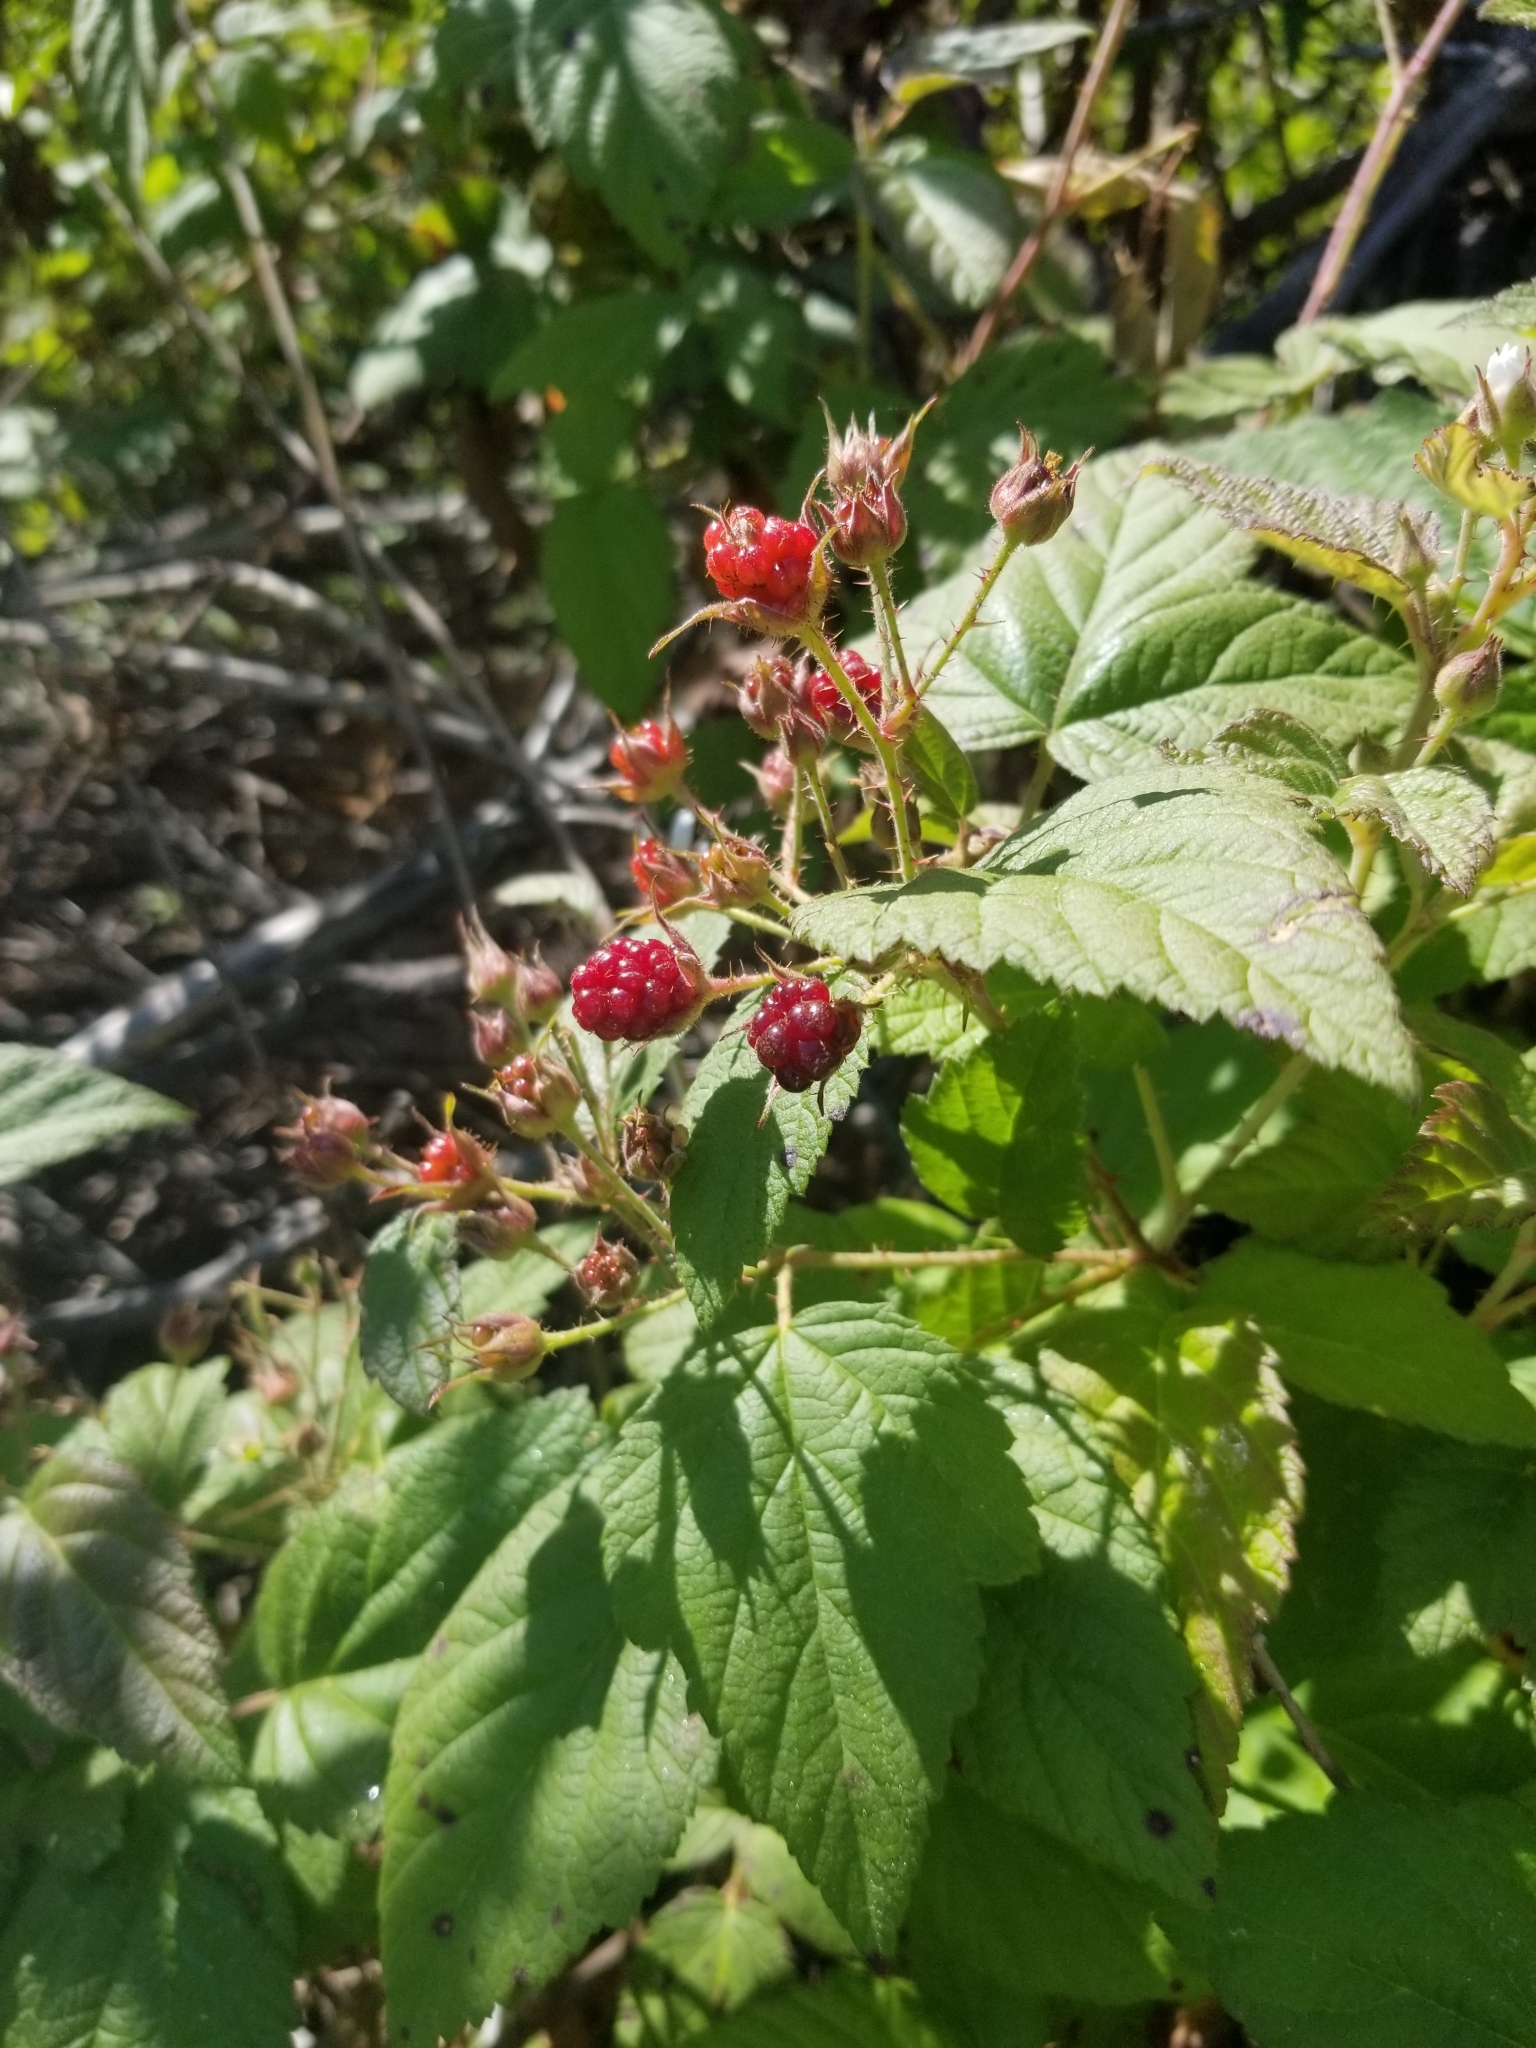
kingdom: Plantae
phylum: Tracheophyta
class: Magnoliopsida
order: Rosales
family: Rosaceae
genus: Rubus
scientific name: Rubus ursinus
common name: Pacific blackberry
